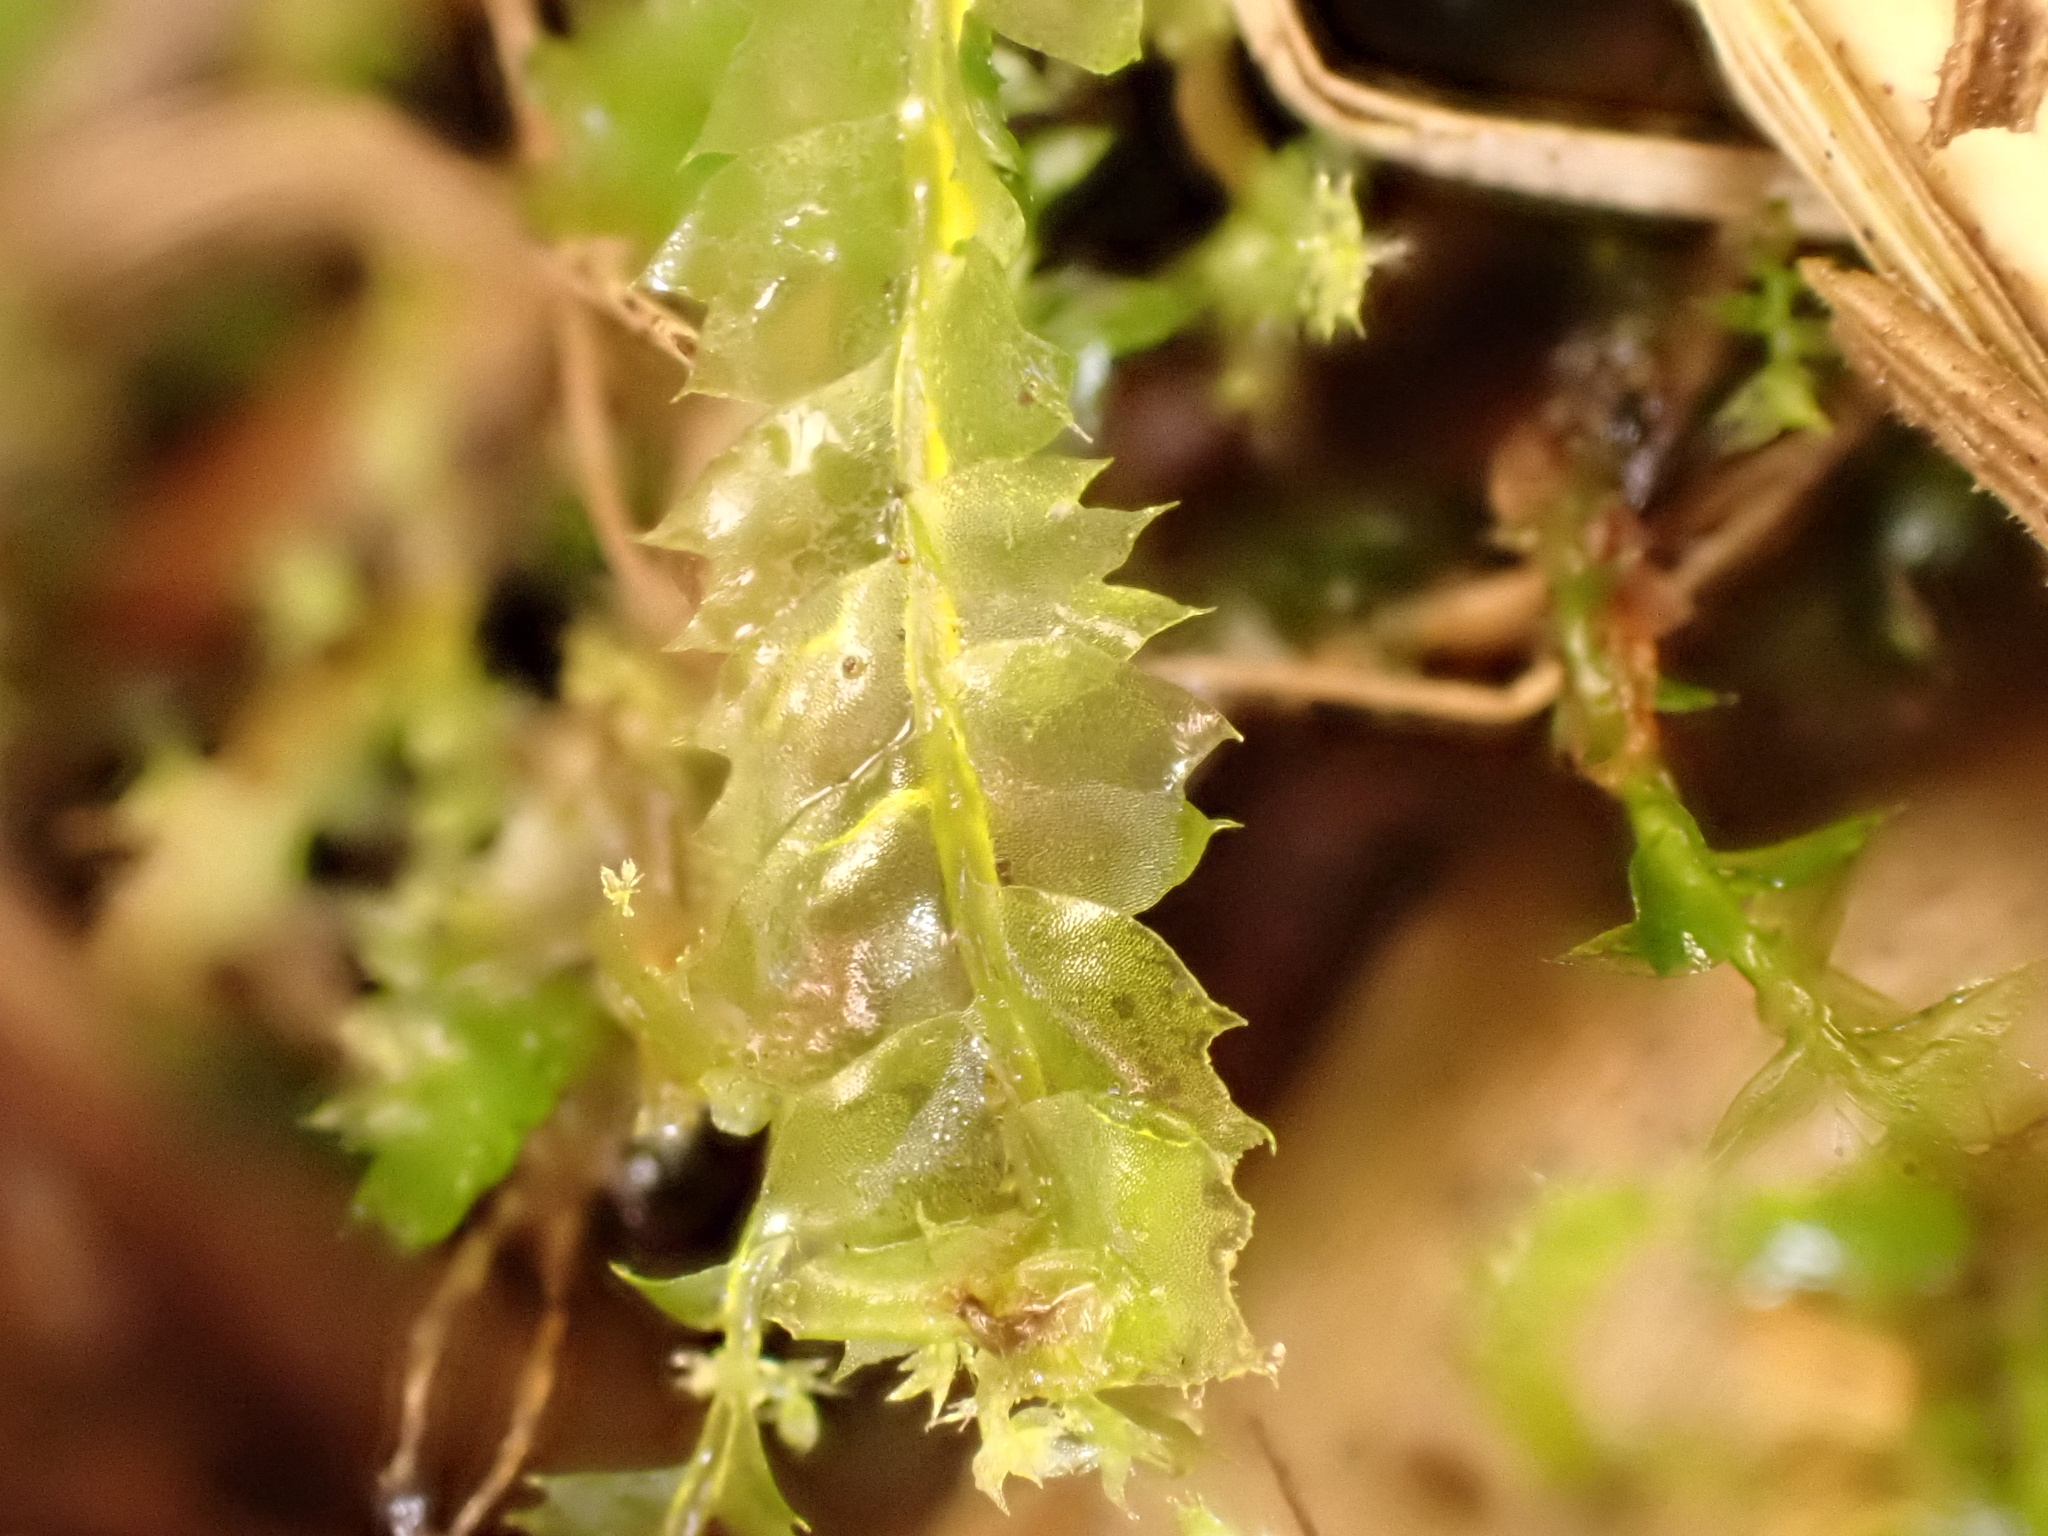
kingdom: Plantae
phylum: Marchantiophyta
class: Jungermanniopsida
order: Jungermanniales
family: Lophocoleaceae
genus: Lophocolea
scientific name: Lophocolea bidentata
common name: Bifid crestwort
